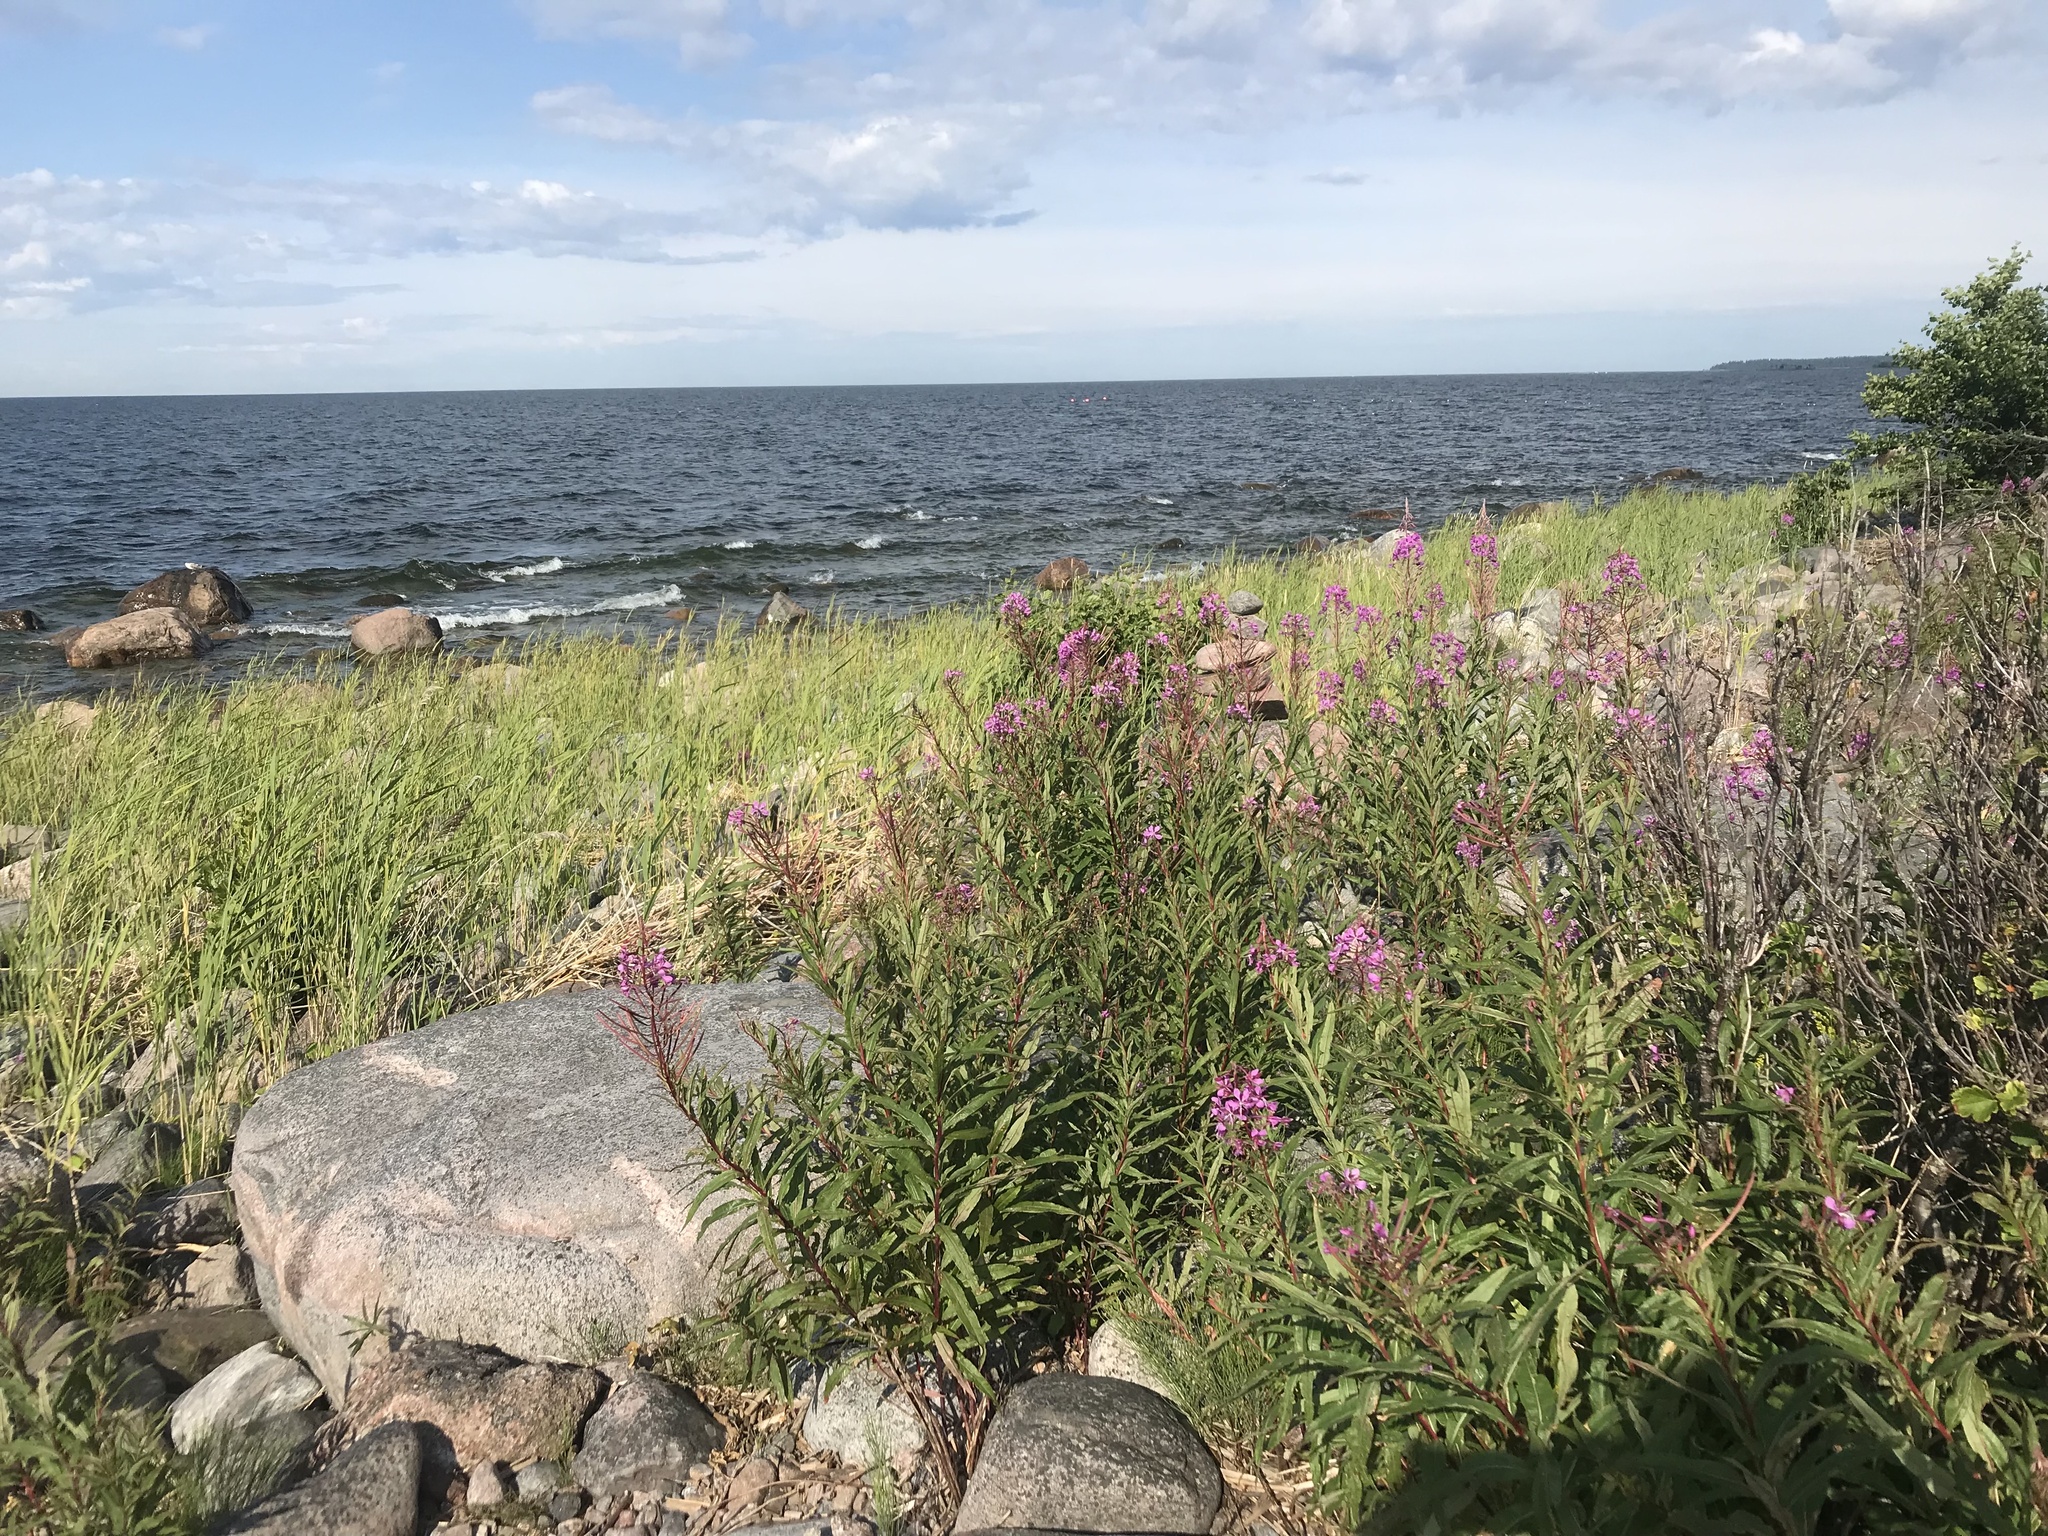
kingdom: Plantae
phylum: Tracheophyta
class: Magnoliopsida
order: Myrtales
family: Onagraceae
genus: Chamaenerion
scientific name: Chamaenerion angustifolium
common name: Fireweed
